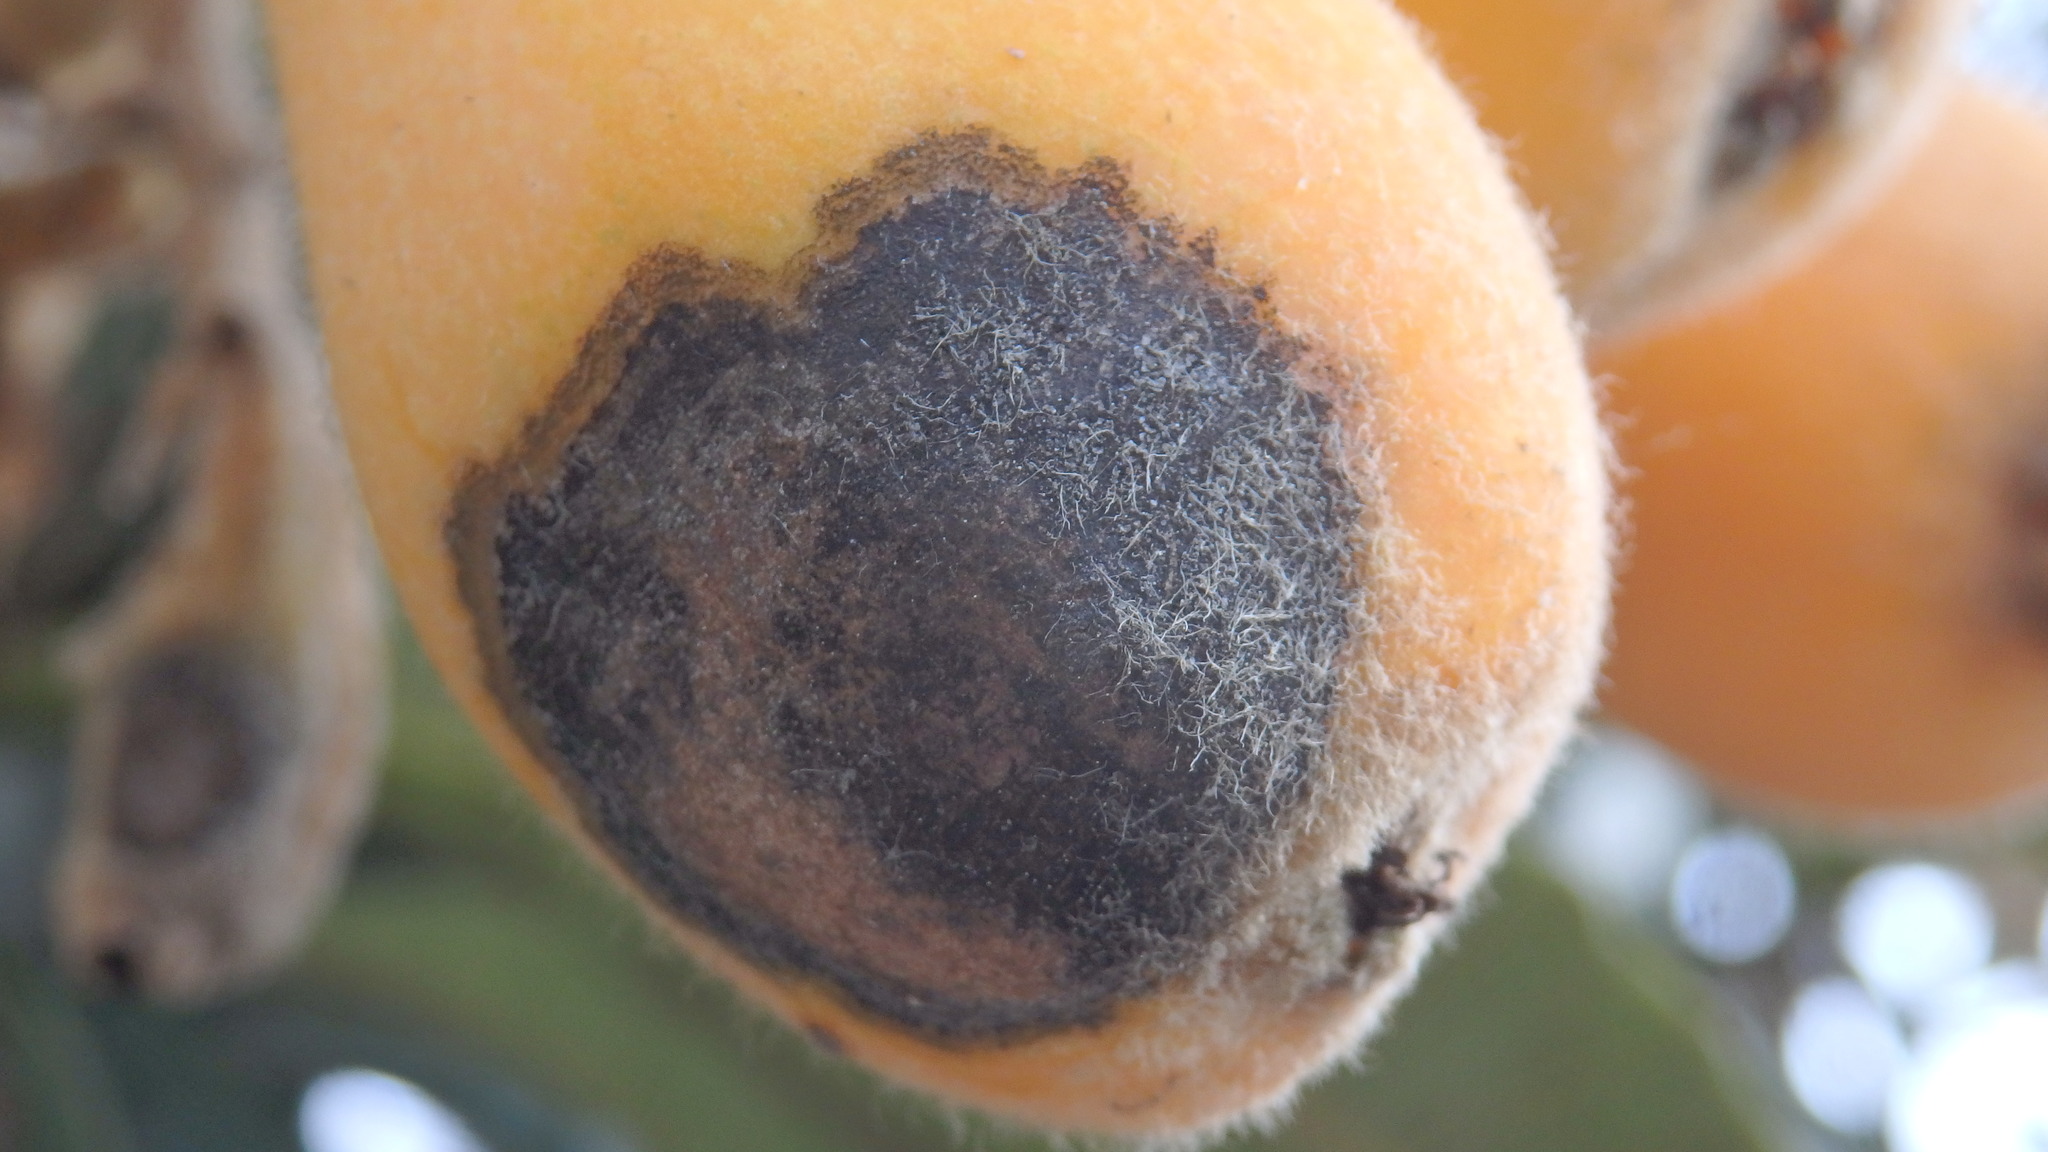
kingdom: Fungi
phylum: Ascomycota
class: Dothideomycetes
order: Venturiales
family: Venturiaceae
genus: Venturia
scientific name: Venturia inaequalis
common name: Apple scab
